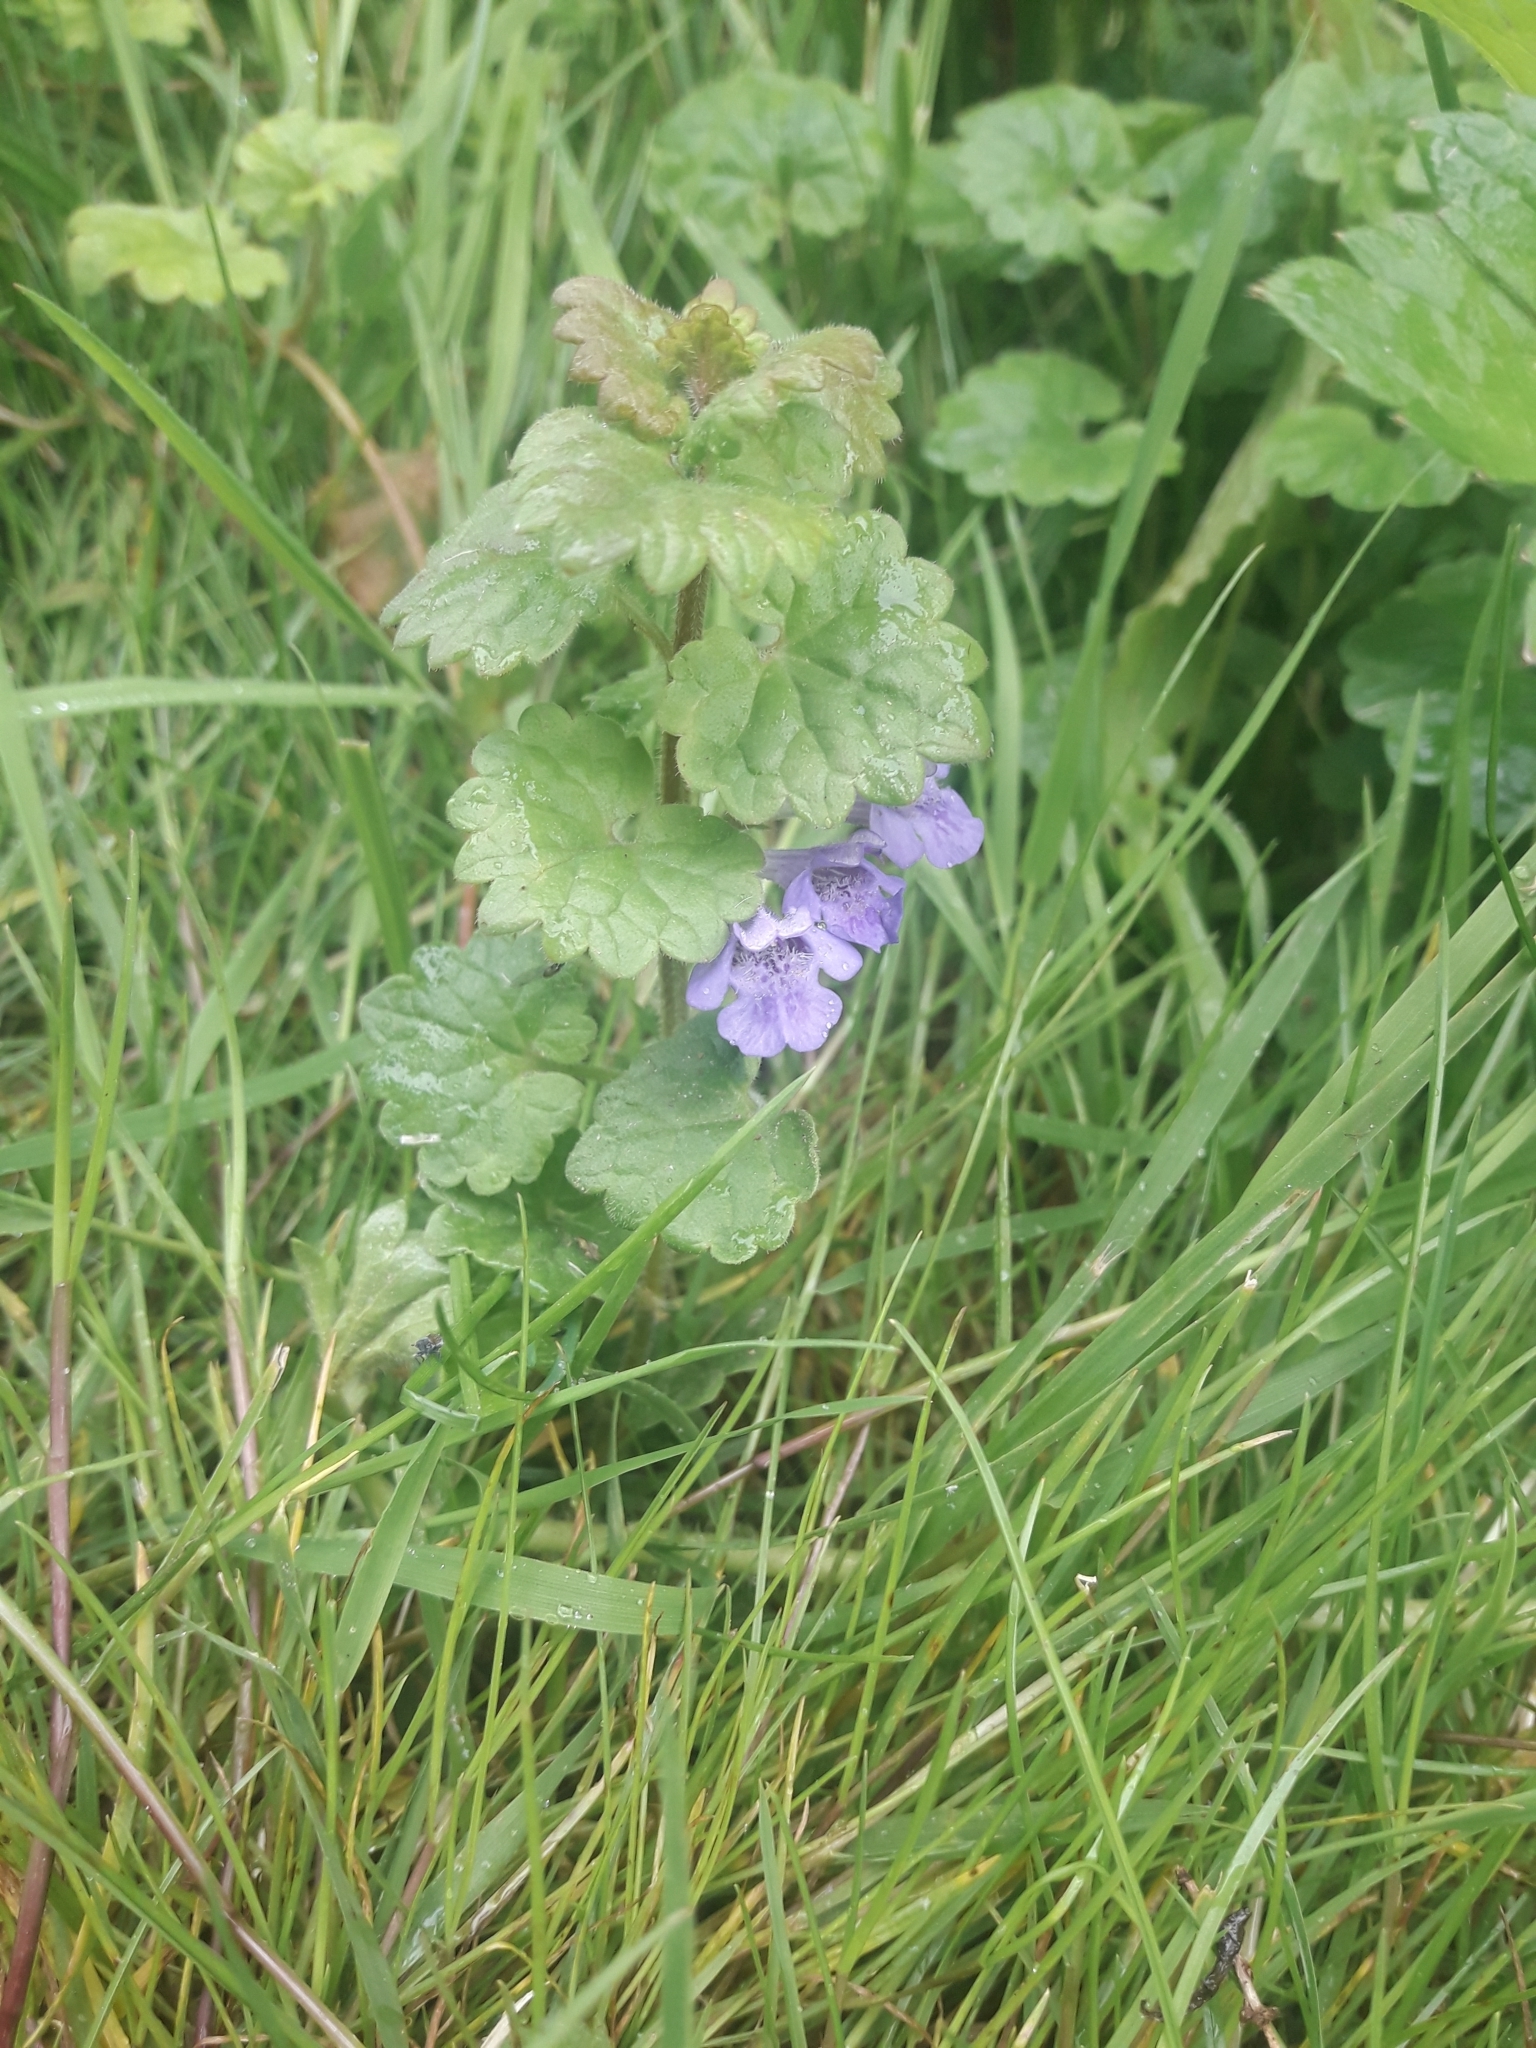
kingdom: Plantae
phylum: Tracheophyta
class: Magnoliopsida
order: Lamiales
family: Lamiaceae
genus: Glechoma
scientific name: Glechoma hederacea
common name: Ground ivy
